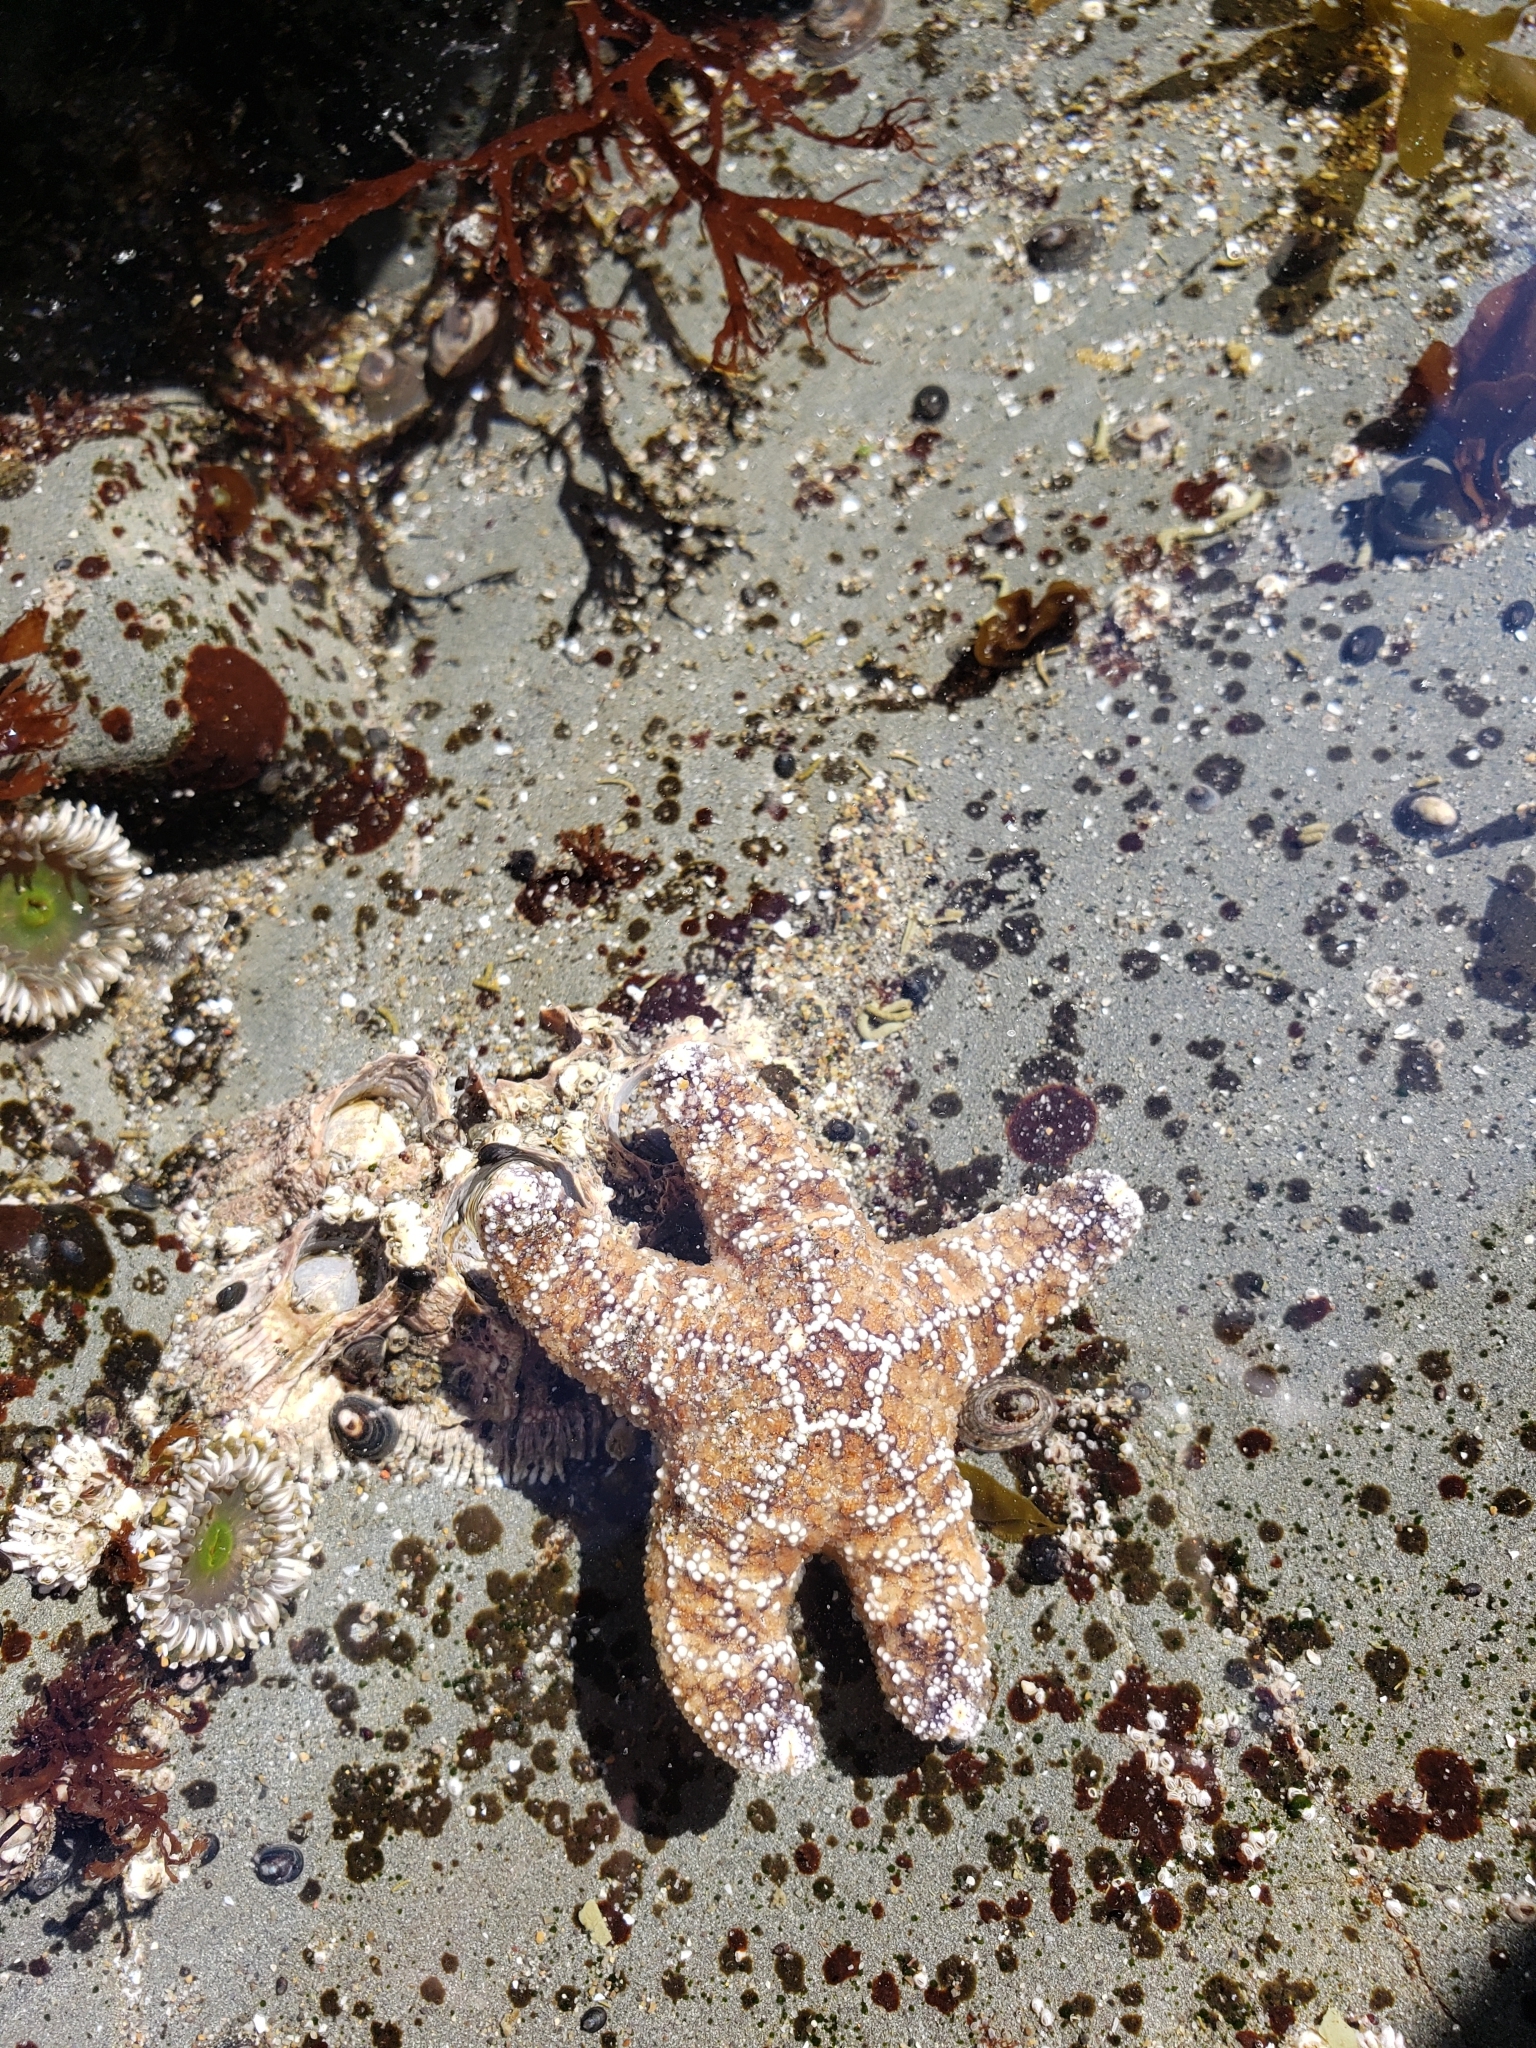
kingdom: Animalia
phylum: Echinodermata
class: Asteroidea
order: Forcipulatida
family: Asteriidae
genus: Pisaster
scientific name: Pisaster ochraceus
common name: Ochre stars
